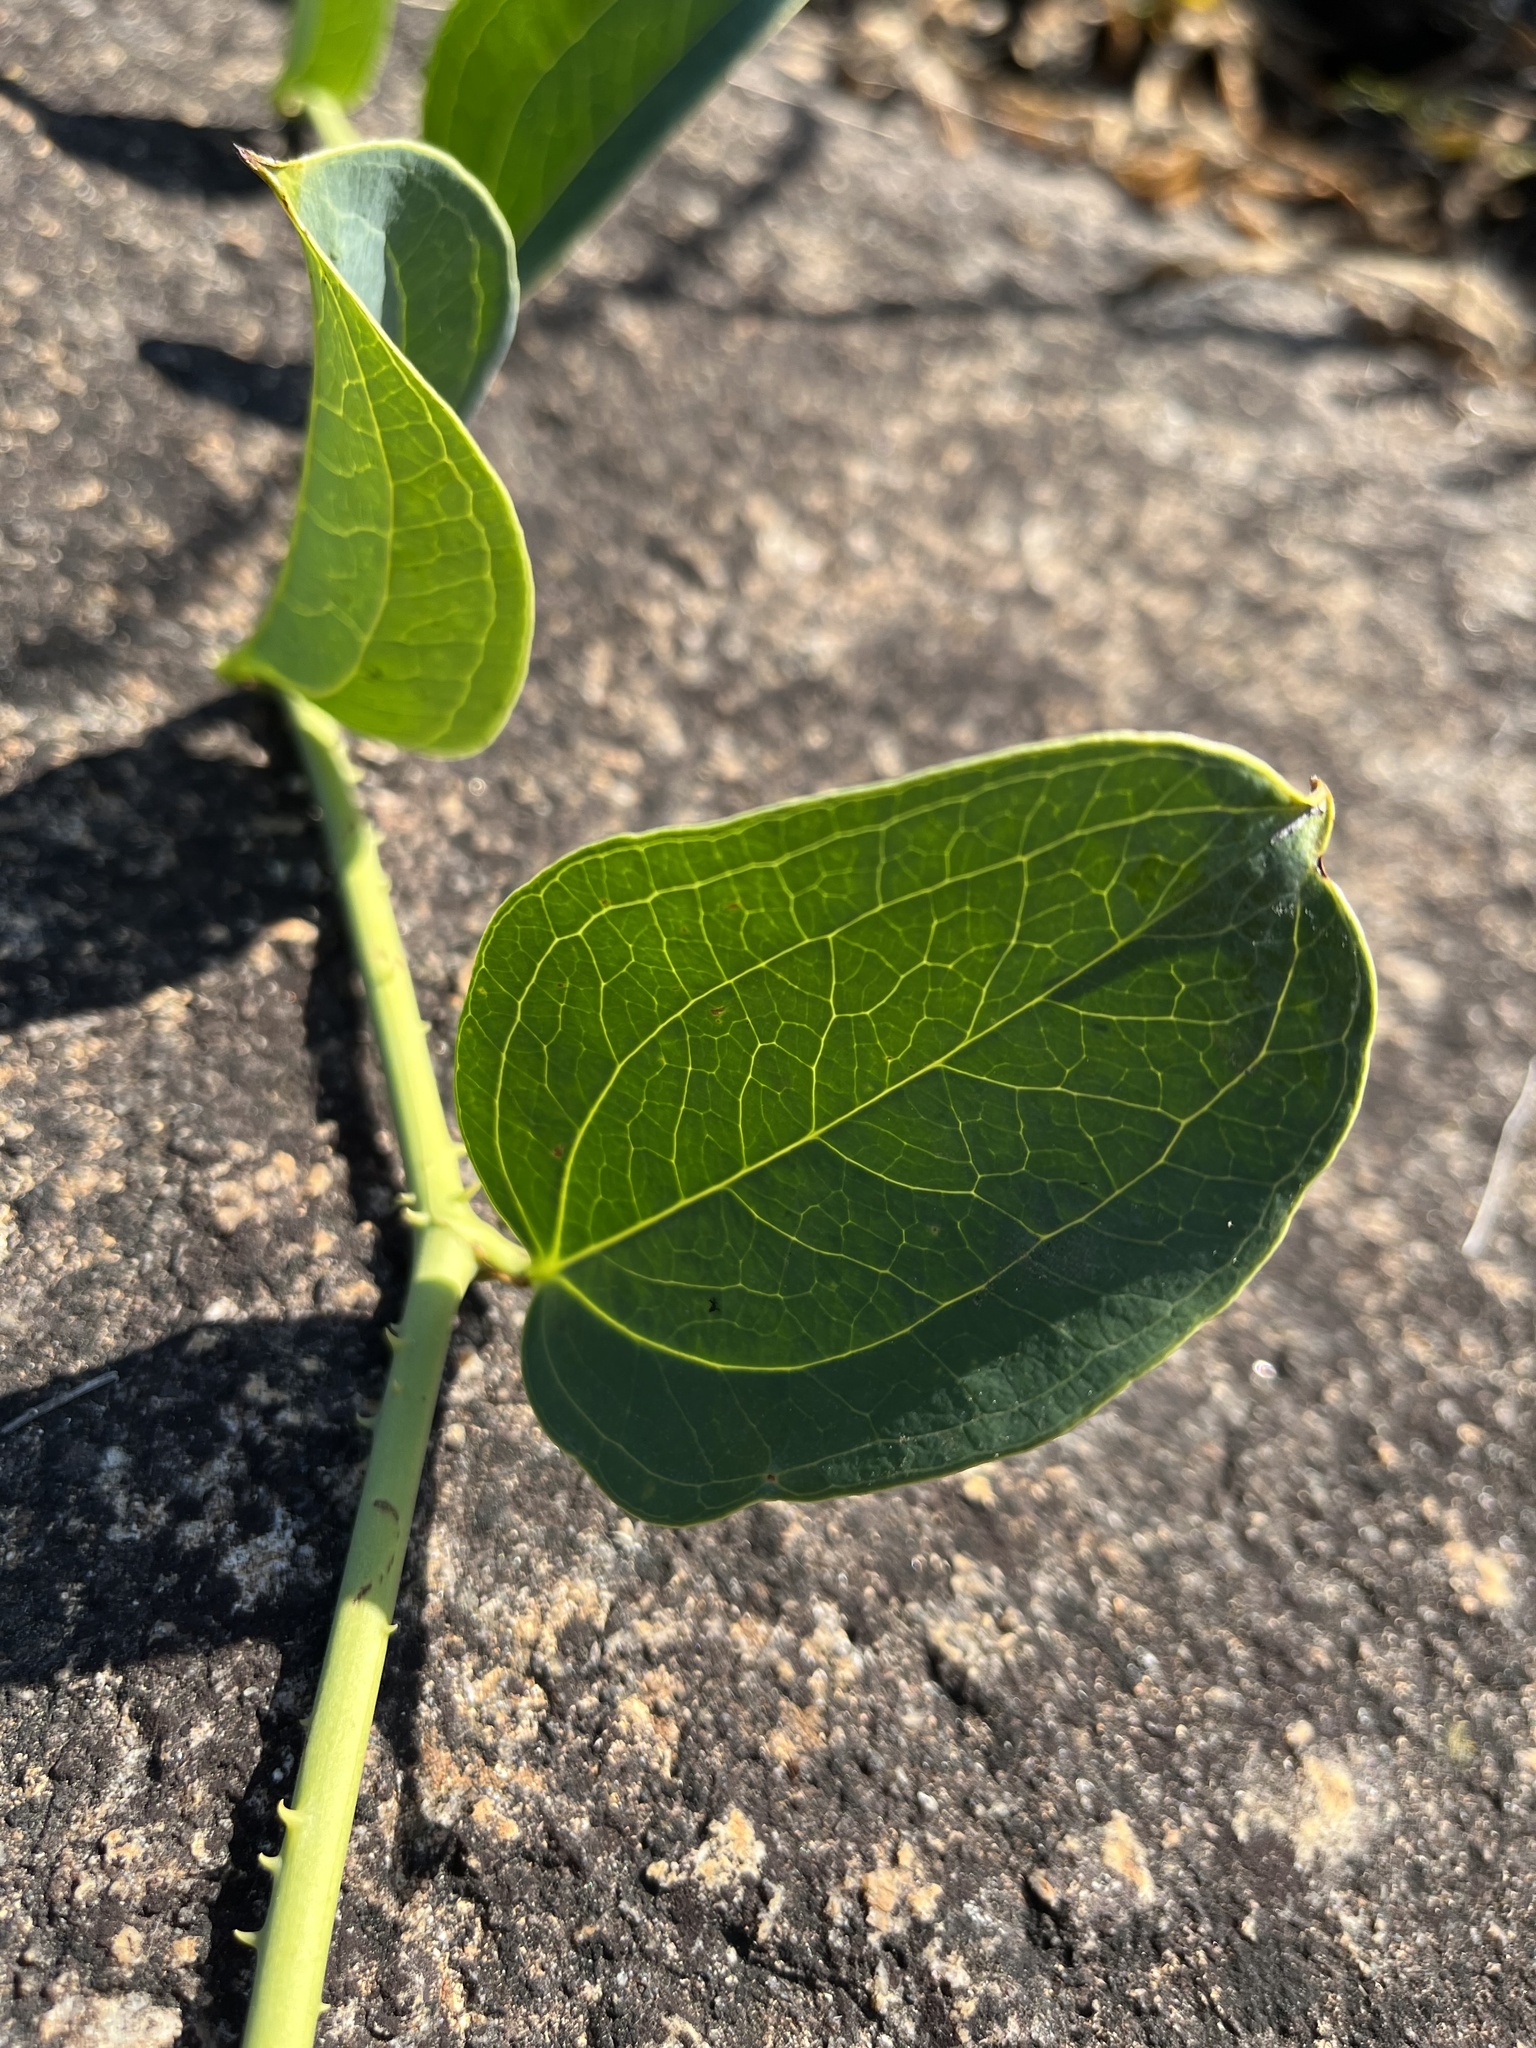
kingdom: Plantae
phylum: Tracheophyta
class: Liliopsida
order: Liliales
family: Smilacaceae
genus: Smilax
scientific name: Smilax anceps
